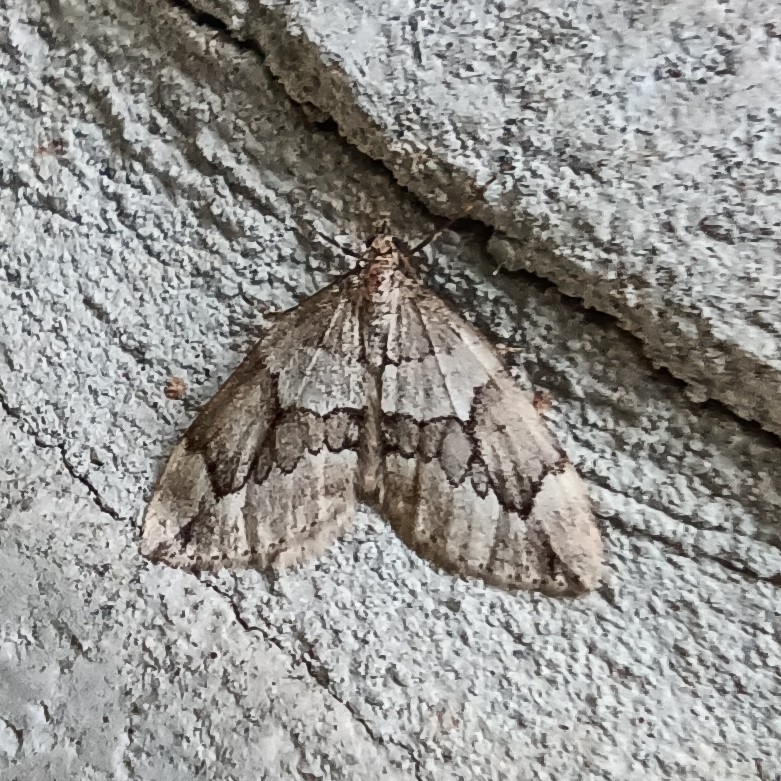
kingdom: Animalia
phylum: Arthropoda
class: Insecta
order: Lepidoptera
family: Geometridae
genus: Thera
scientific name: Thera juniperata
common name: Juniper carpet
